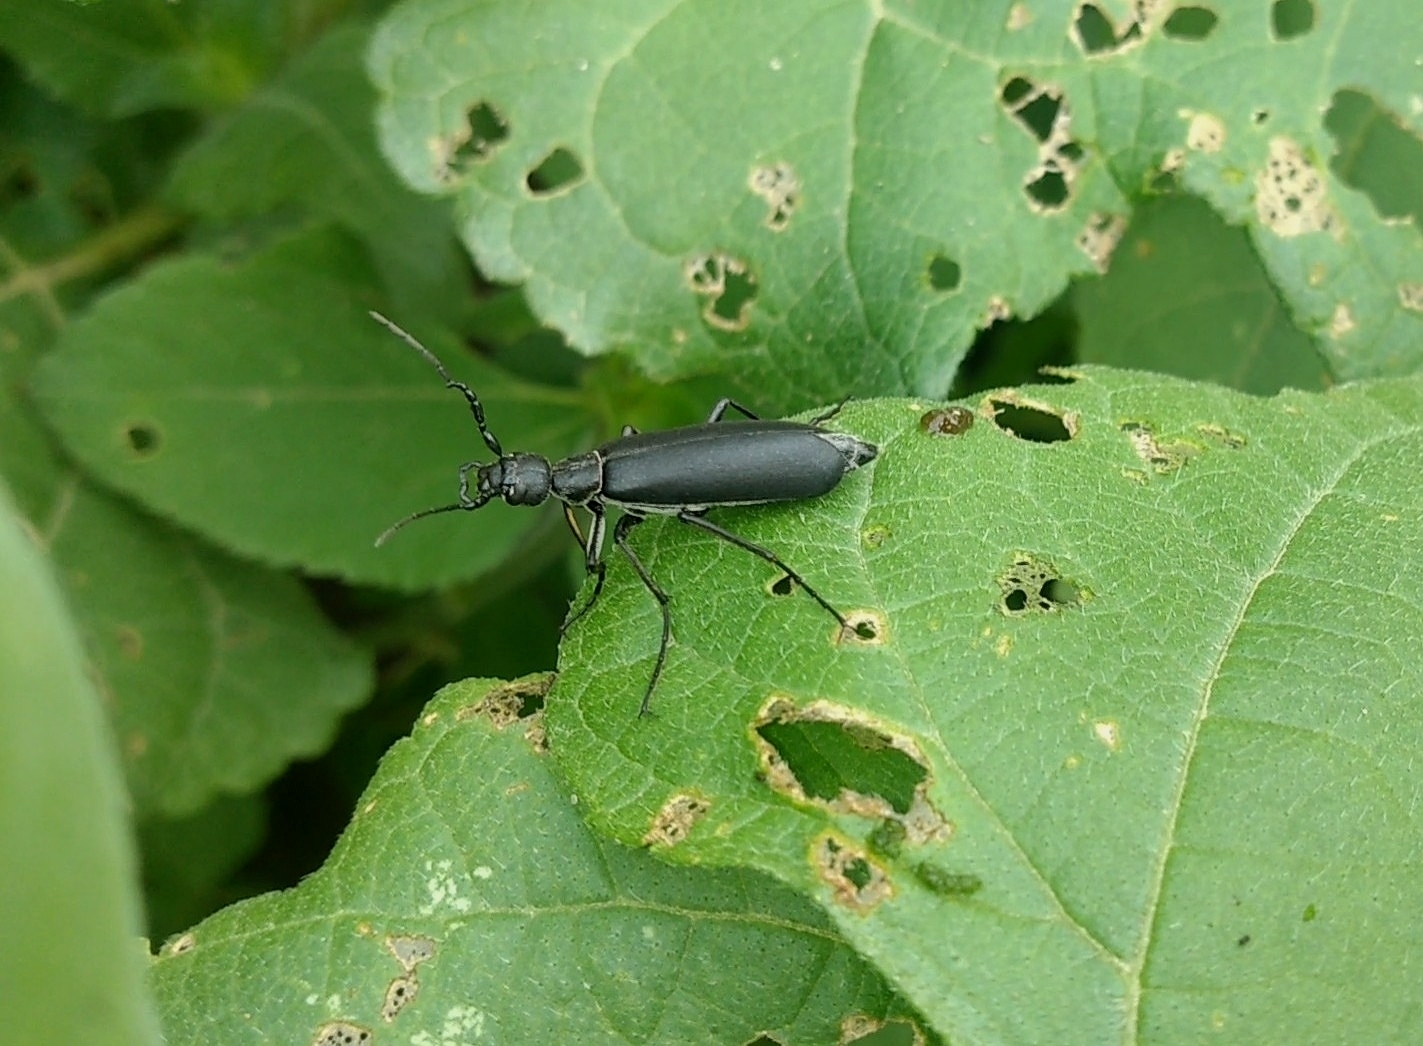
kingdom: Animalia
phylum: Arthropoda
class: Insecta
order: Coleoptera
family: Meloidae
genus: Epicauta
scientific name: Epicauta curvicornis
